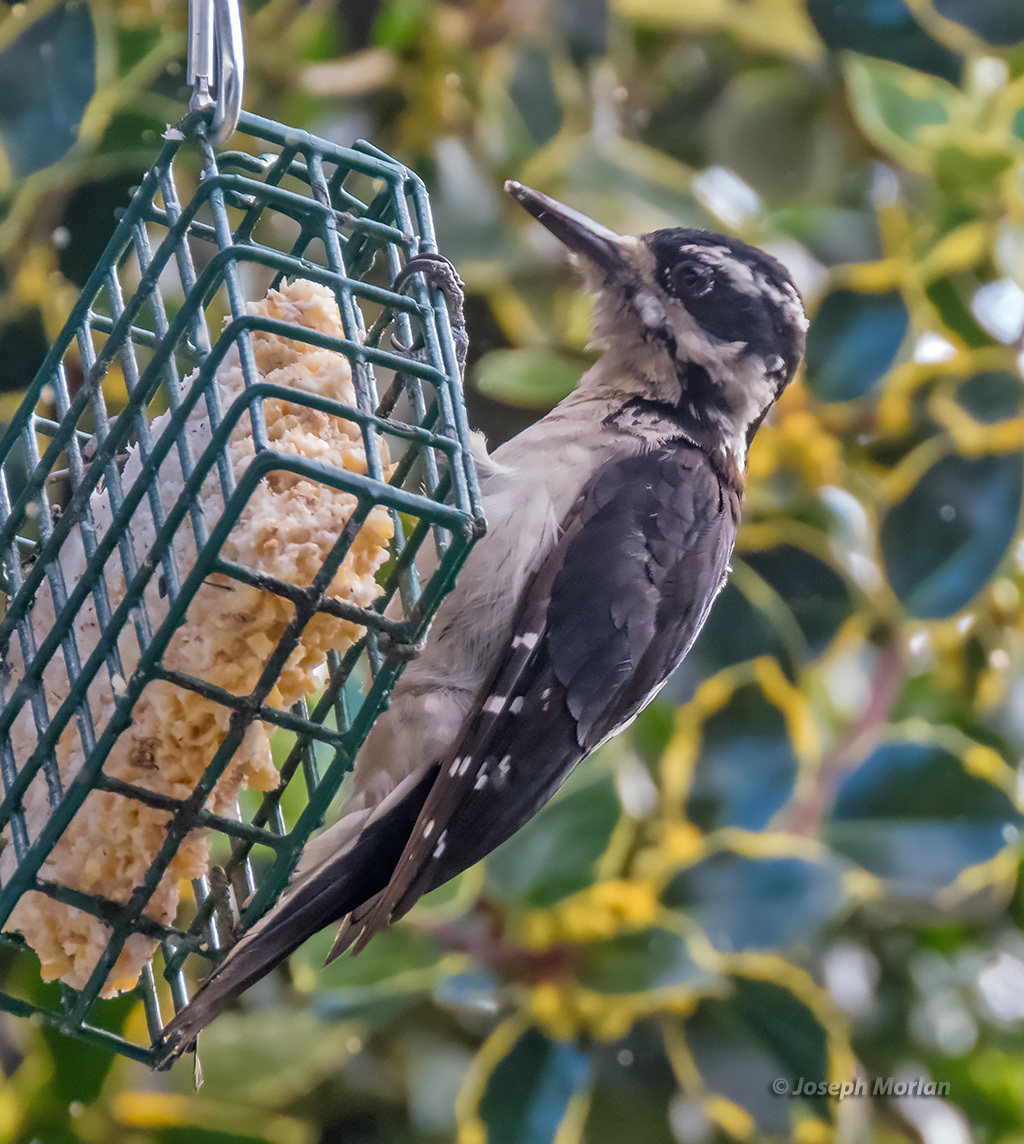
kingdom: Animalia
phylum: Chordata
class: Aves
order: Piciformes
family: Picidae
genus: Leuconotopicus
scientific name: Leuconotopicus villosus
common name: Hairy woodpecker
